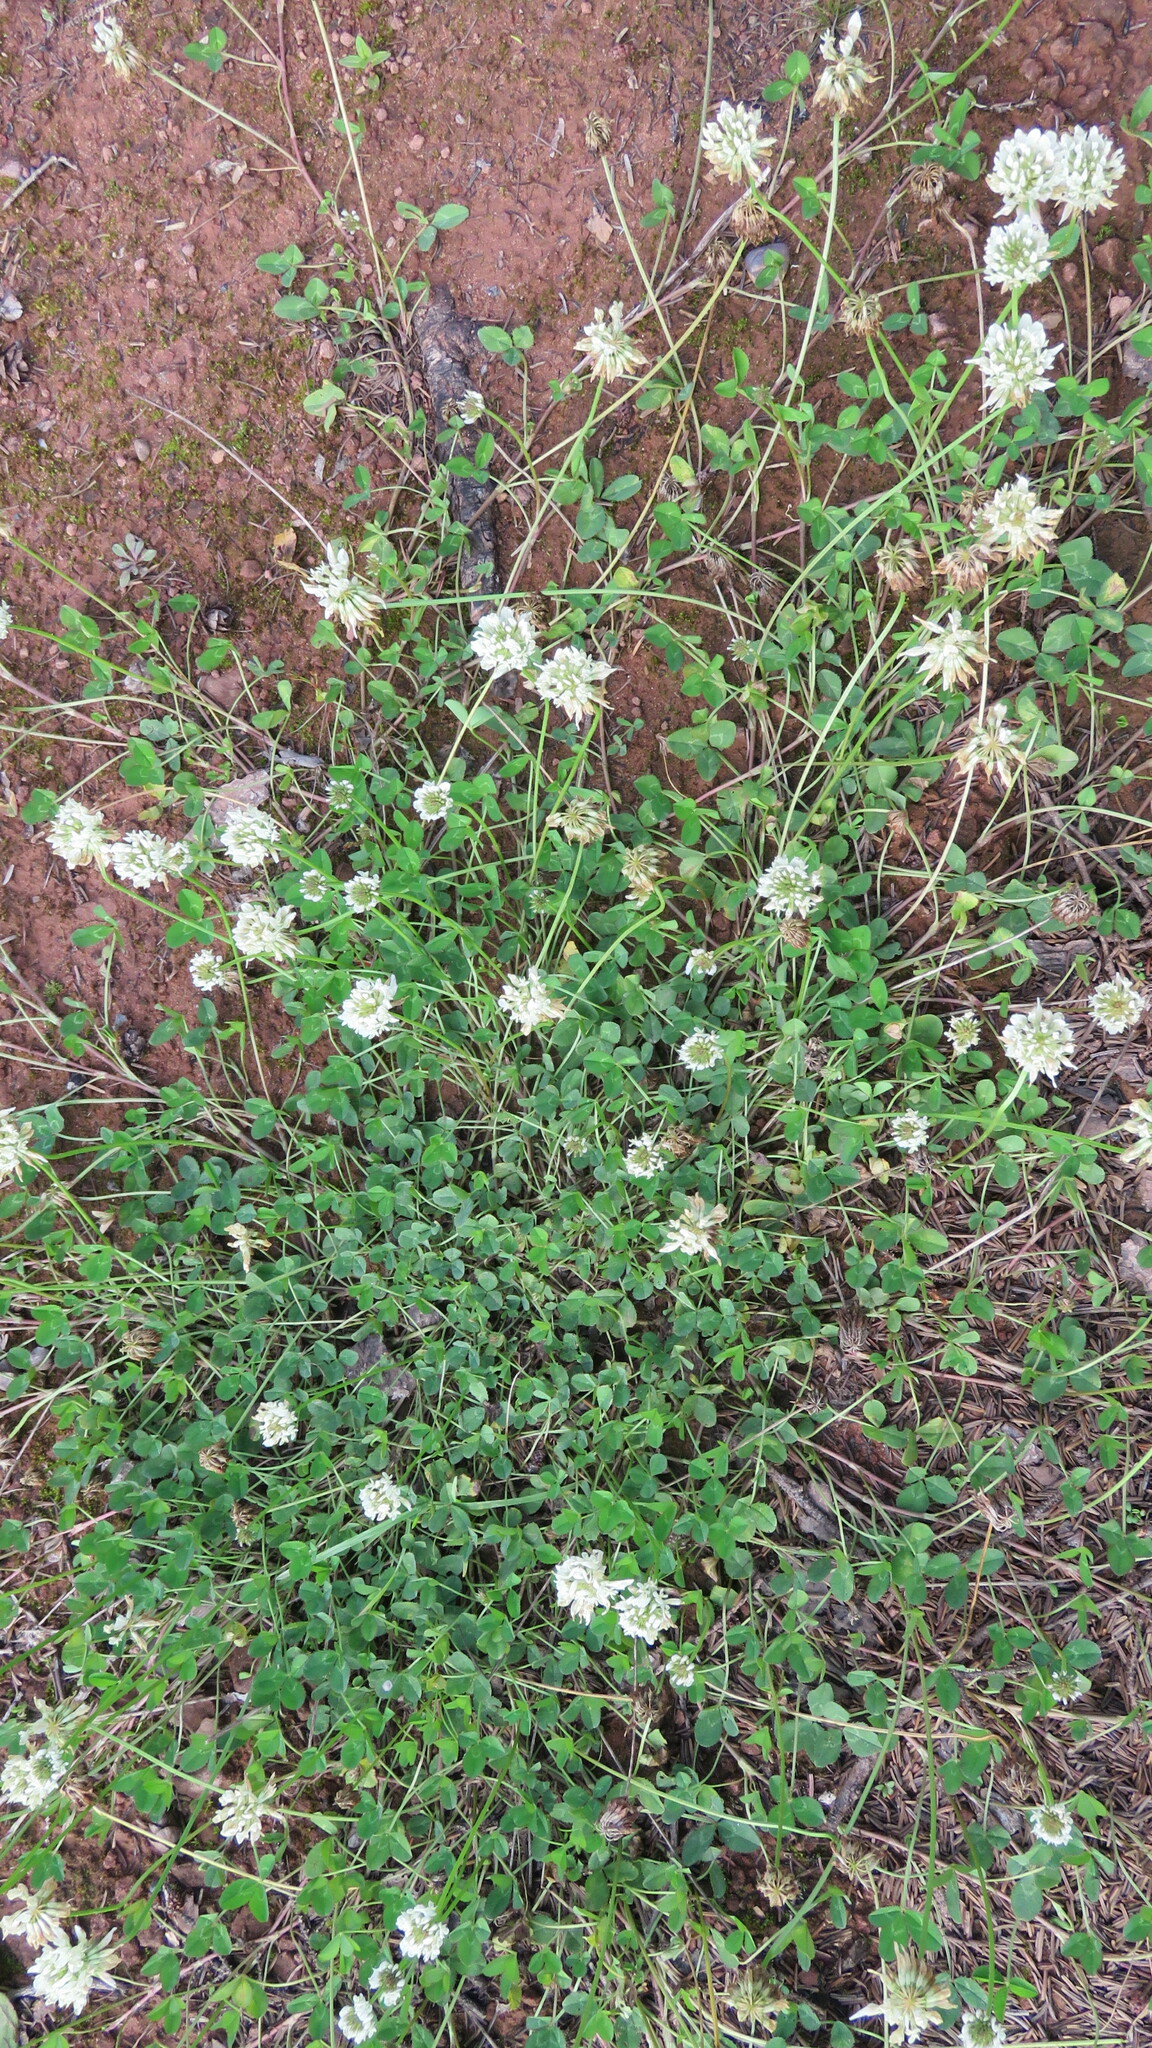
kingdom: Plantae
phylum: Tracheophyta
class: Magnoliopsida
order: Fabales
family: Fabaceae
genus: Trifolium
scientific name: Trifolium repens
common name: White clover
